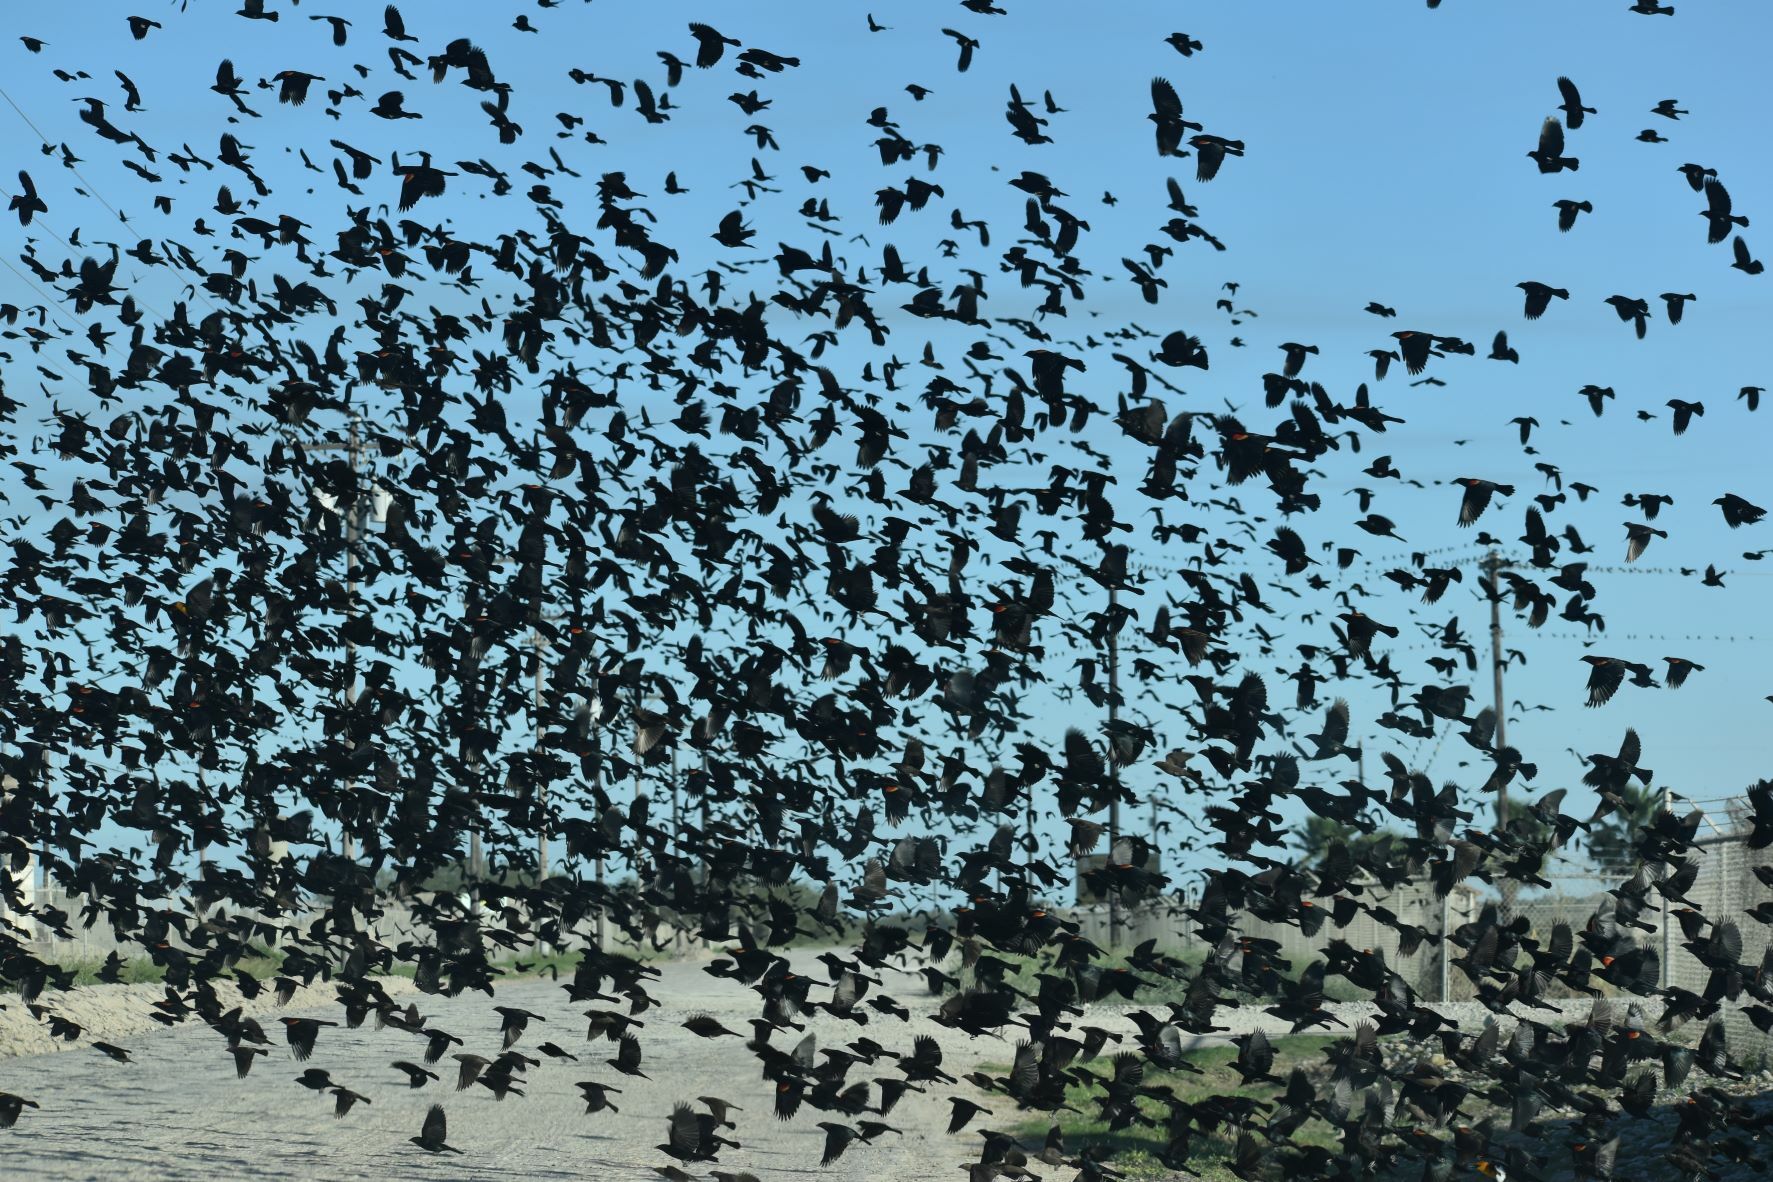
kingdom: Animalia
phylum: Chordata
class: Aves
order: Passeriformes
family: Icteridae
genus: Agelaius
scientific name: Agelaius phoeniceus
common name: Red-winged blackbird
